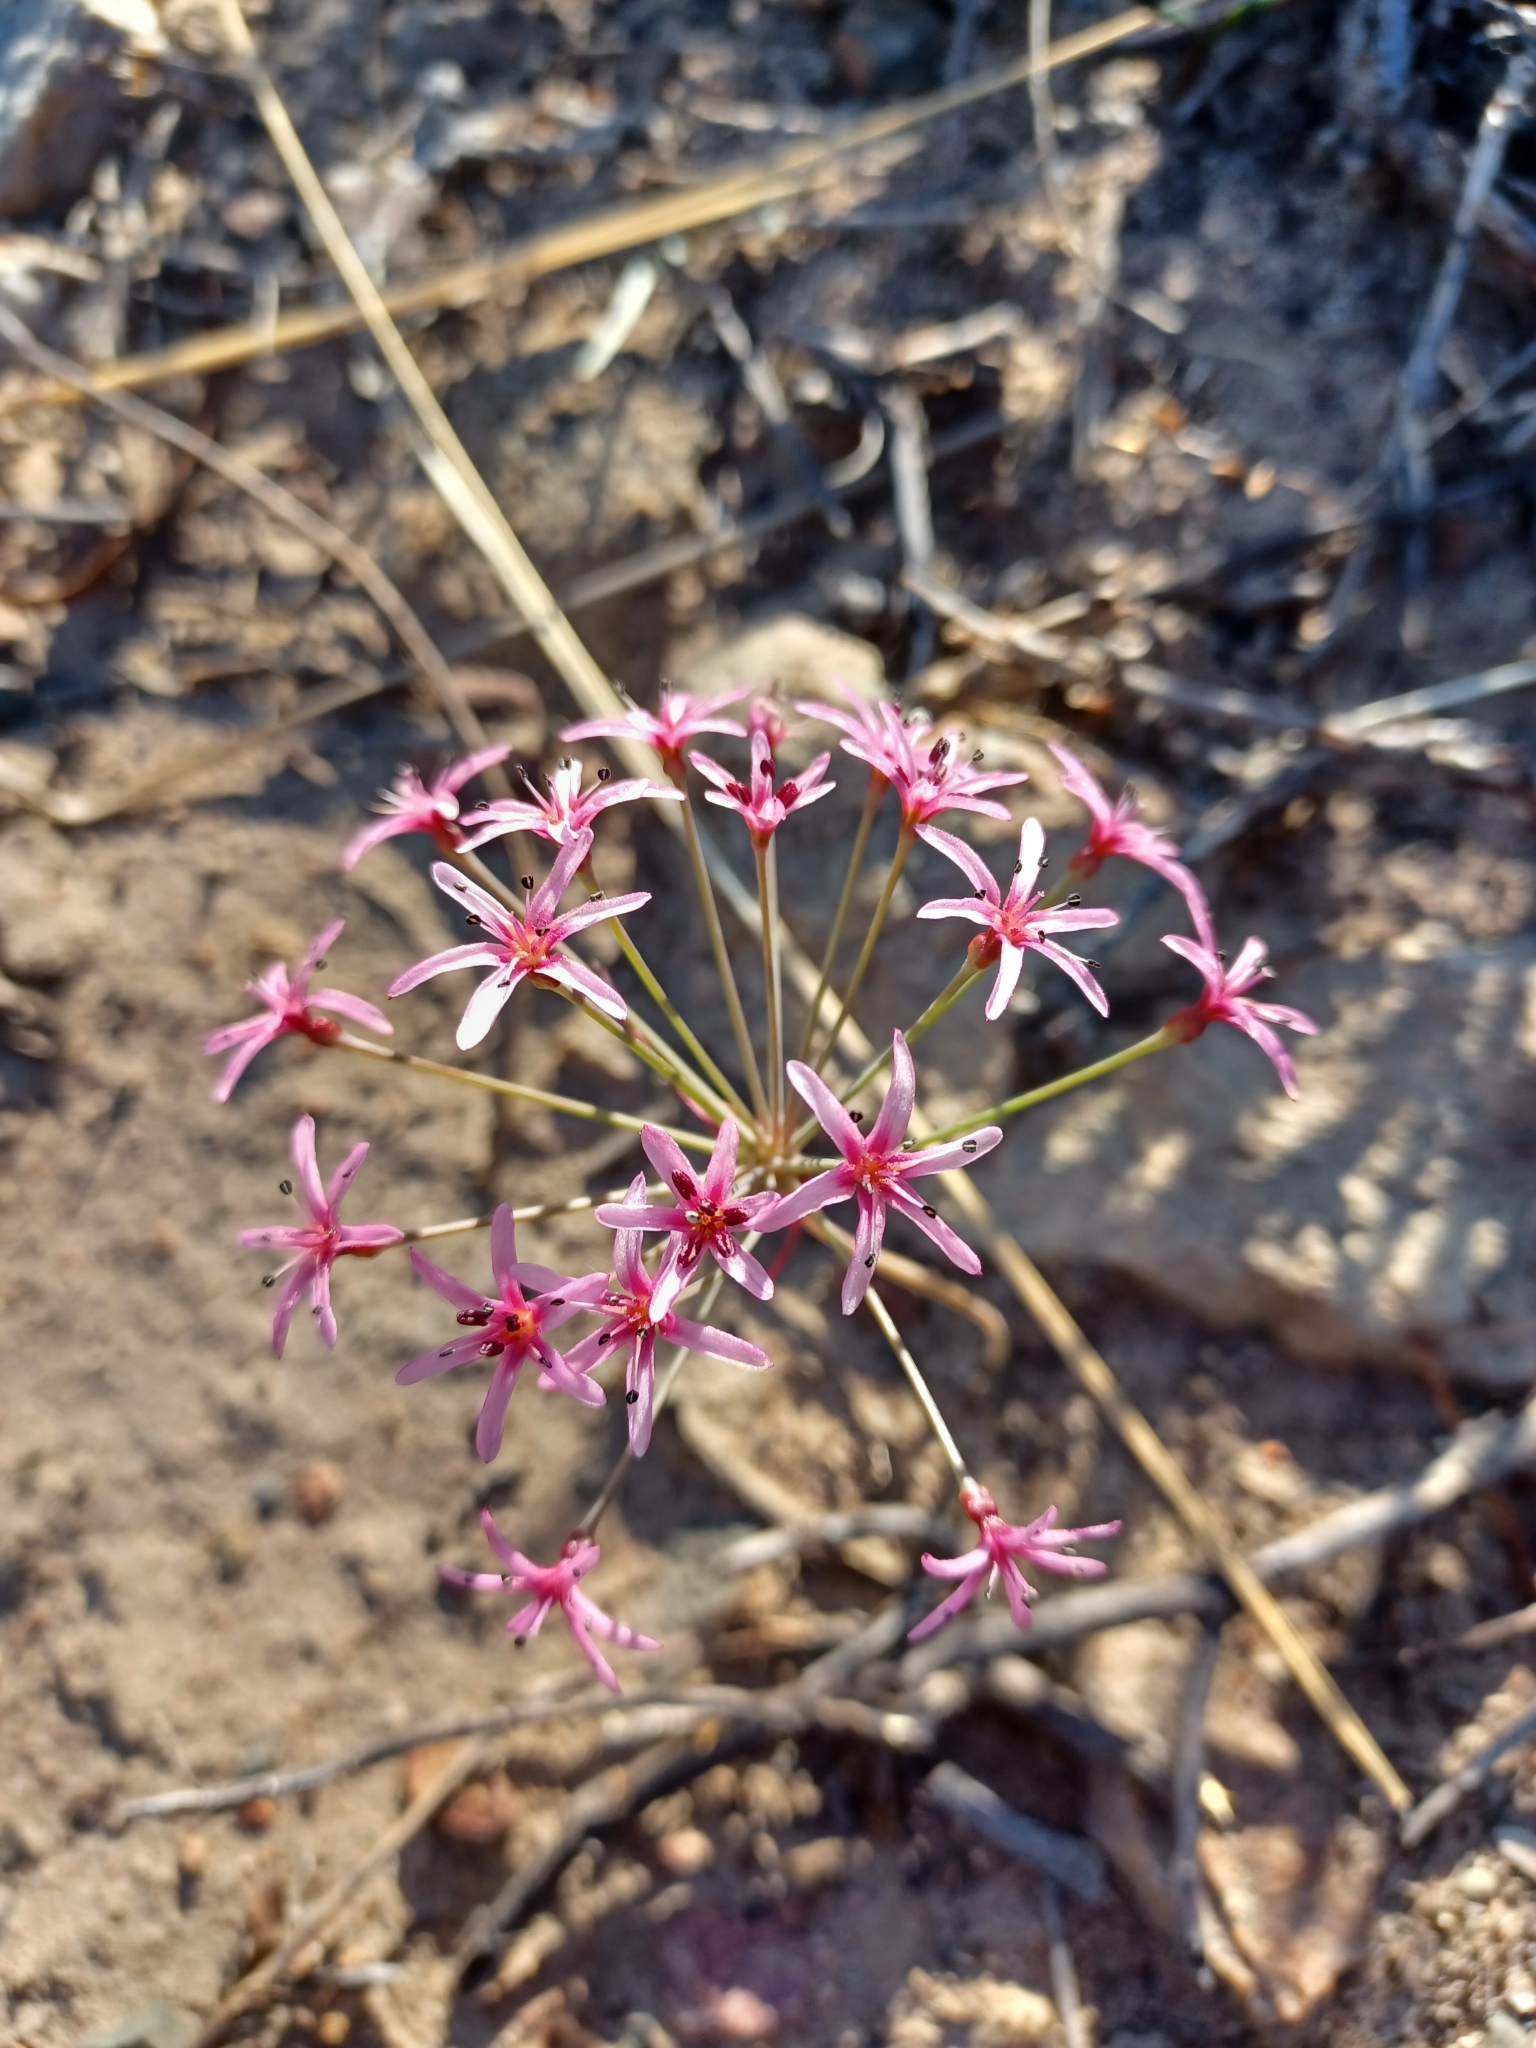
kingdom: Plantae
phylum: Tracheophyta
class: Liliopsida
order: Asparagales
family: Amaryllidaceae
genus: Hessea
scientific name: Hessea stellaris
